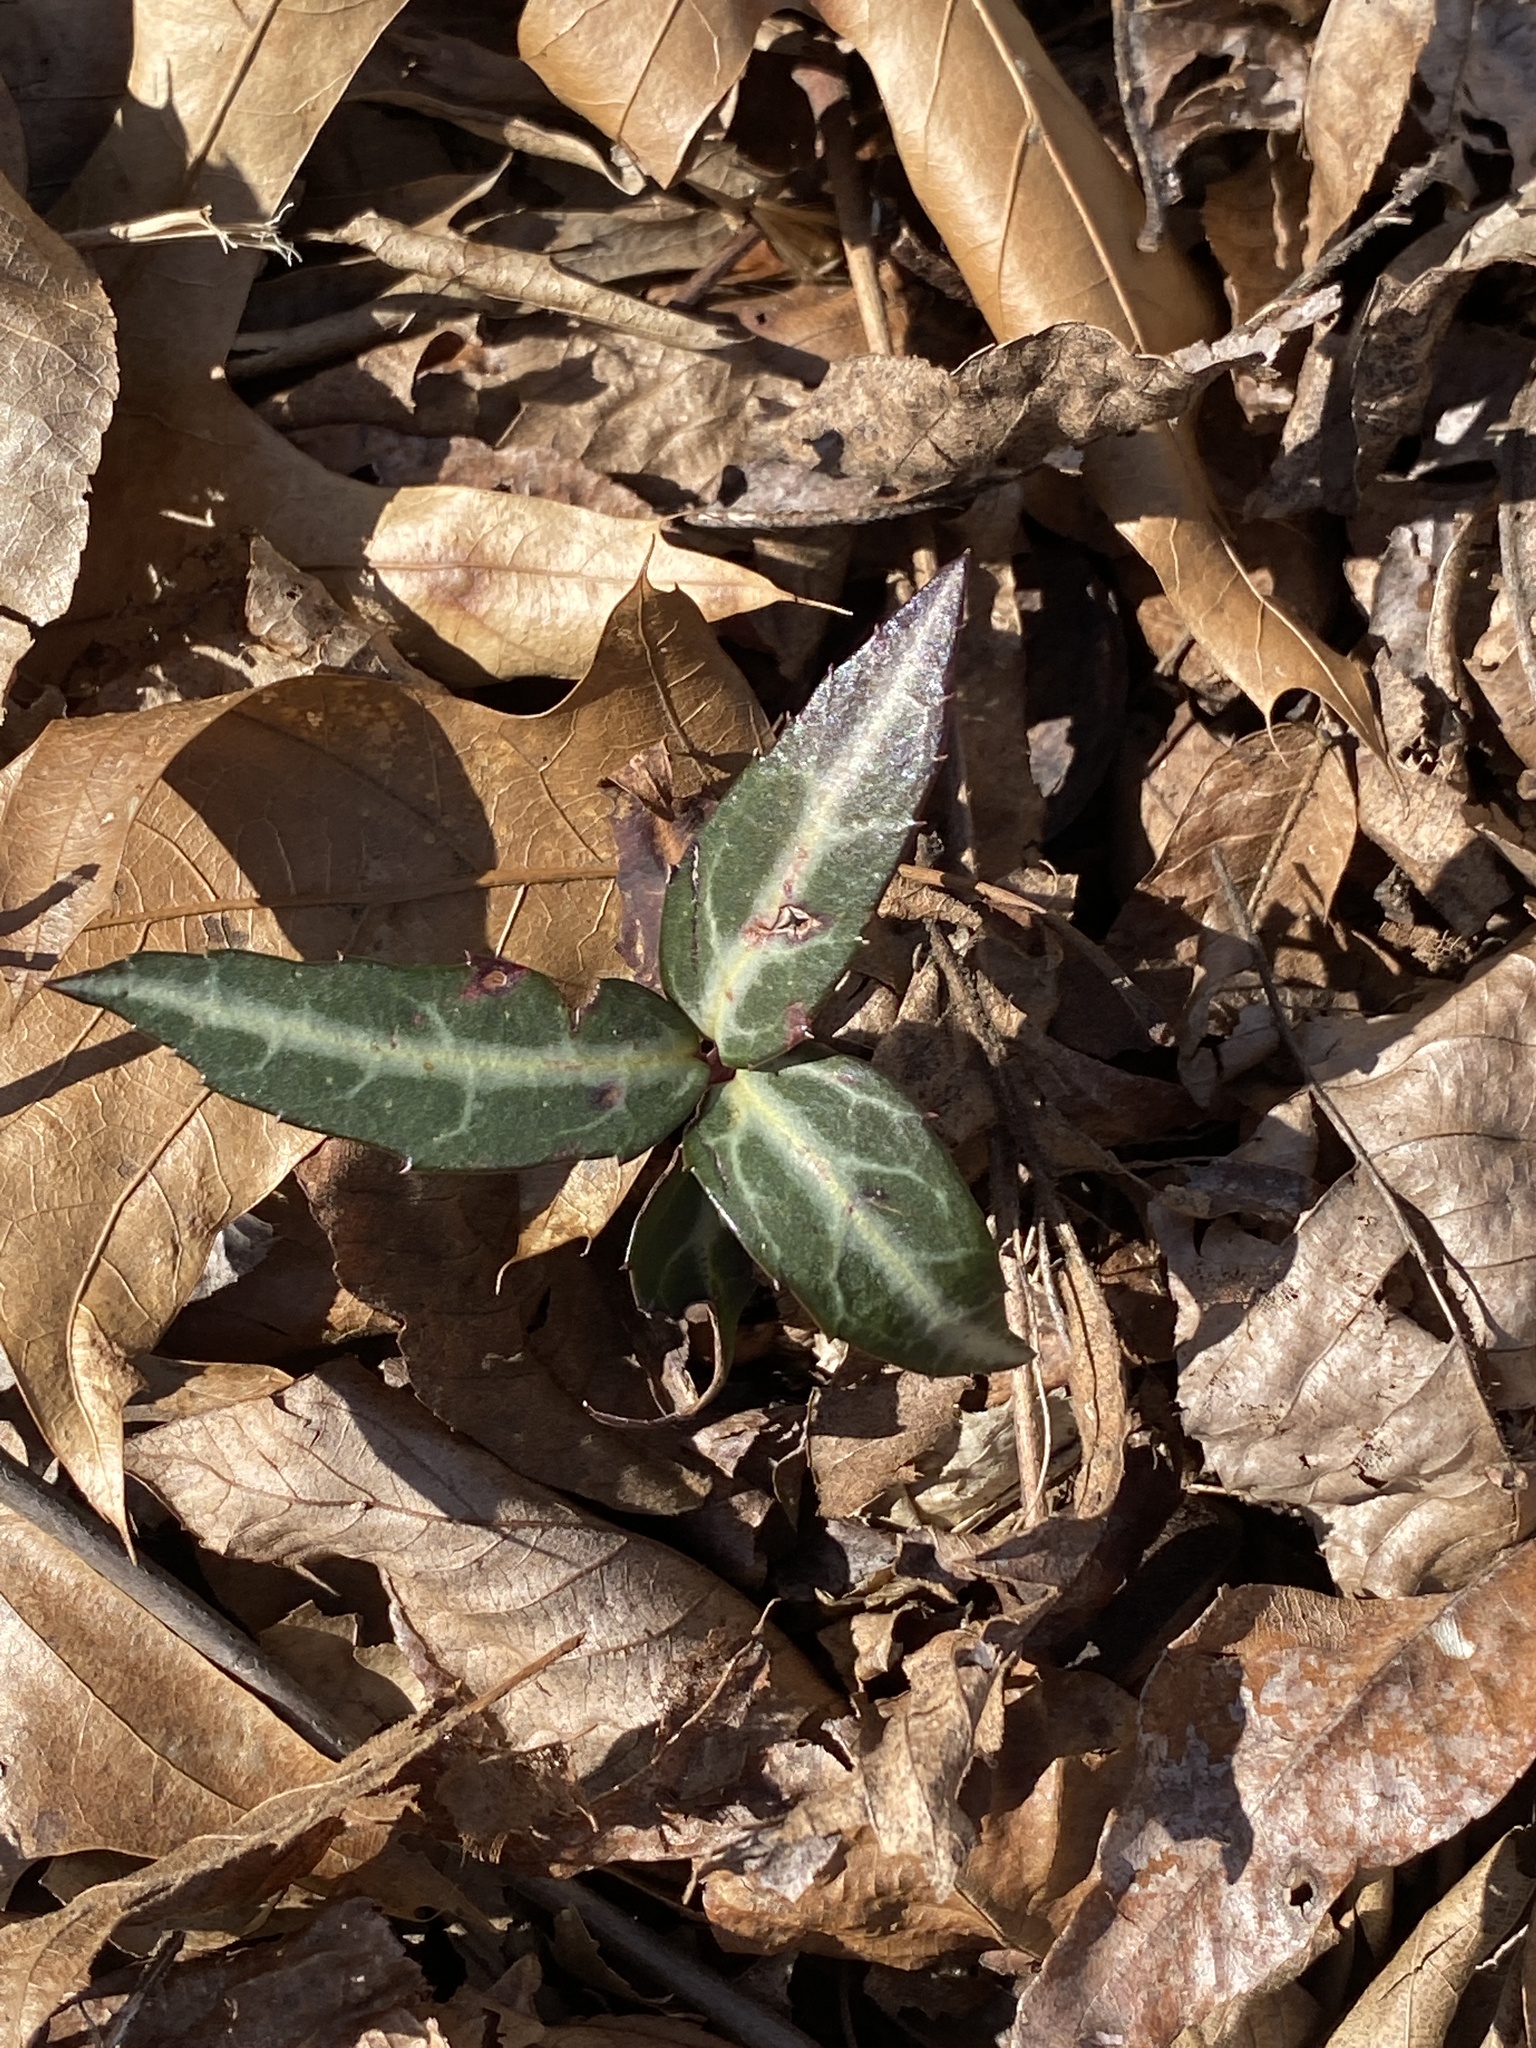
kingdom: Plantae
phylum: Tracheophyta
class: Magnoliopsida
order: Ericales
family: Ericaceae
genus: Chimaphila
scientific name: Chimaphila maculata
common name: Spotted pipsissewa
